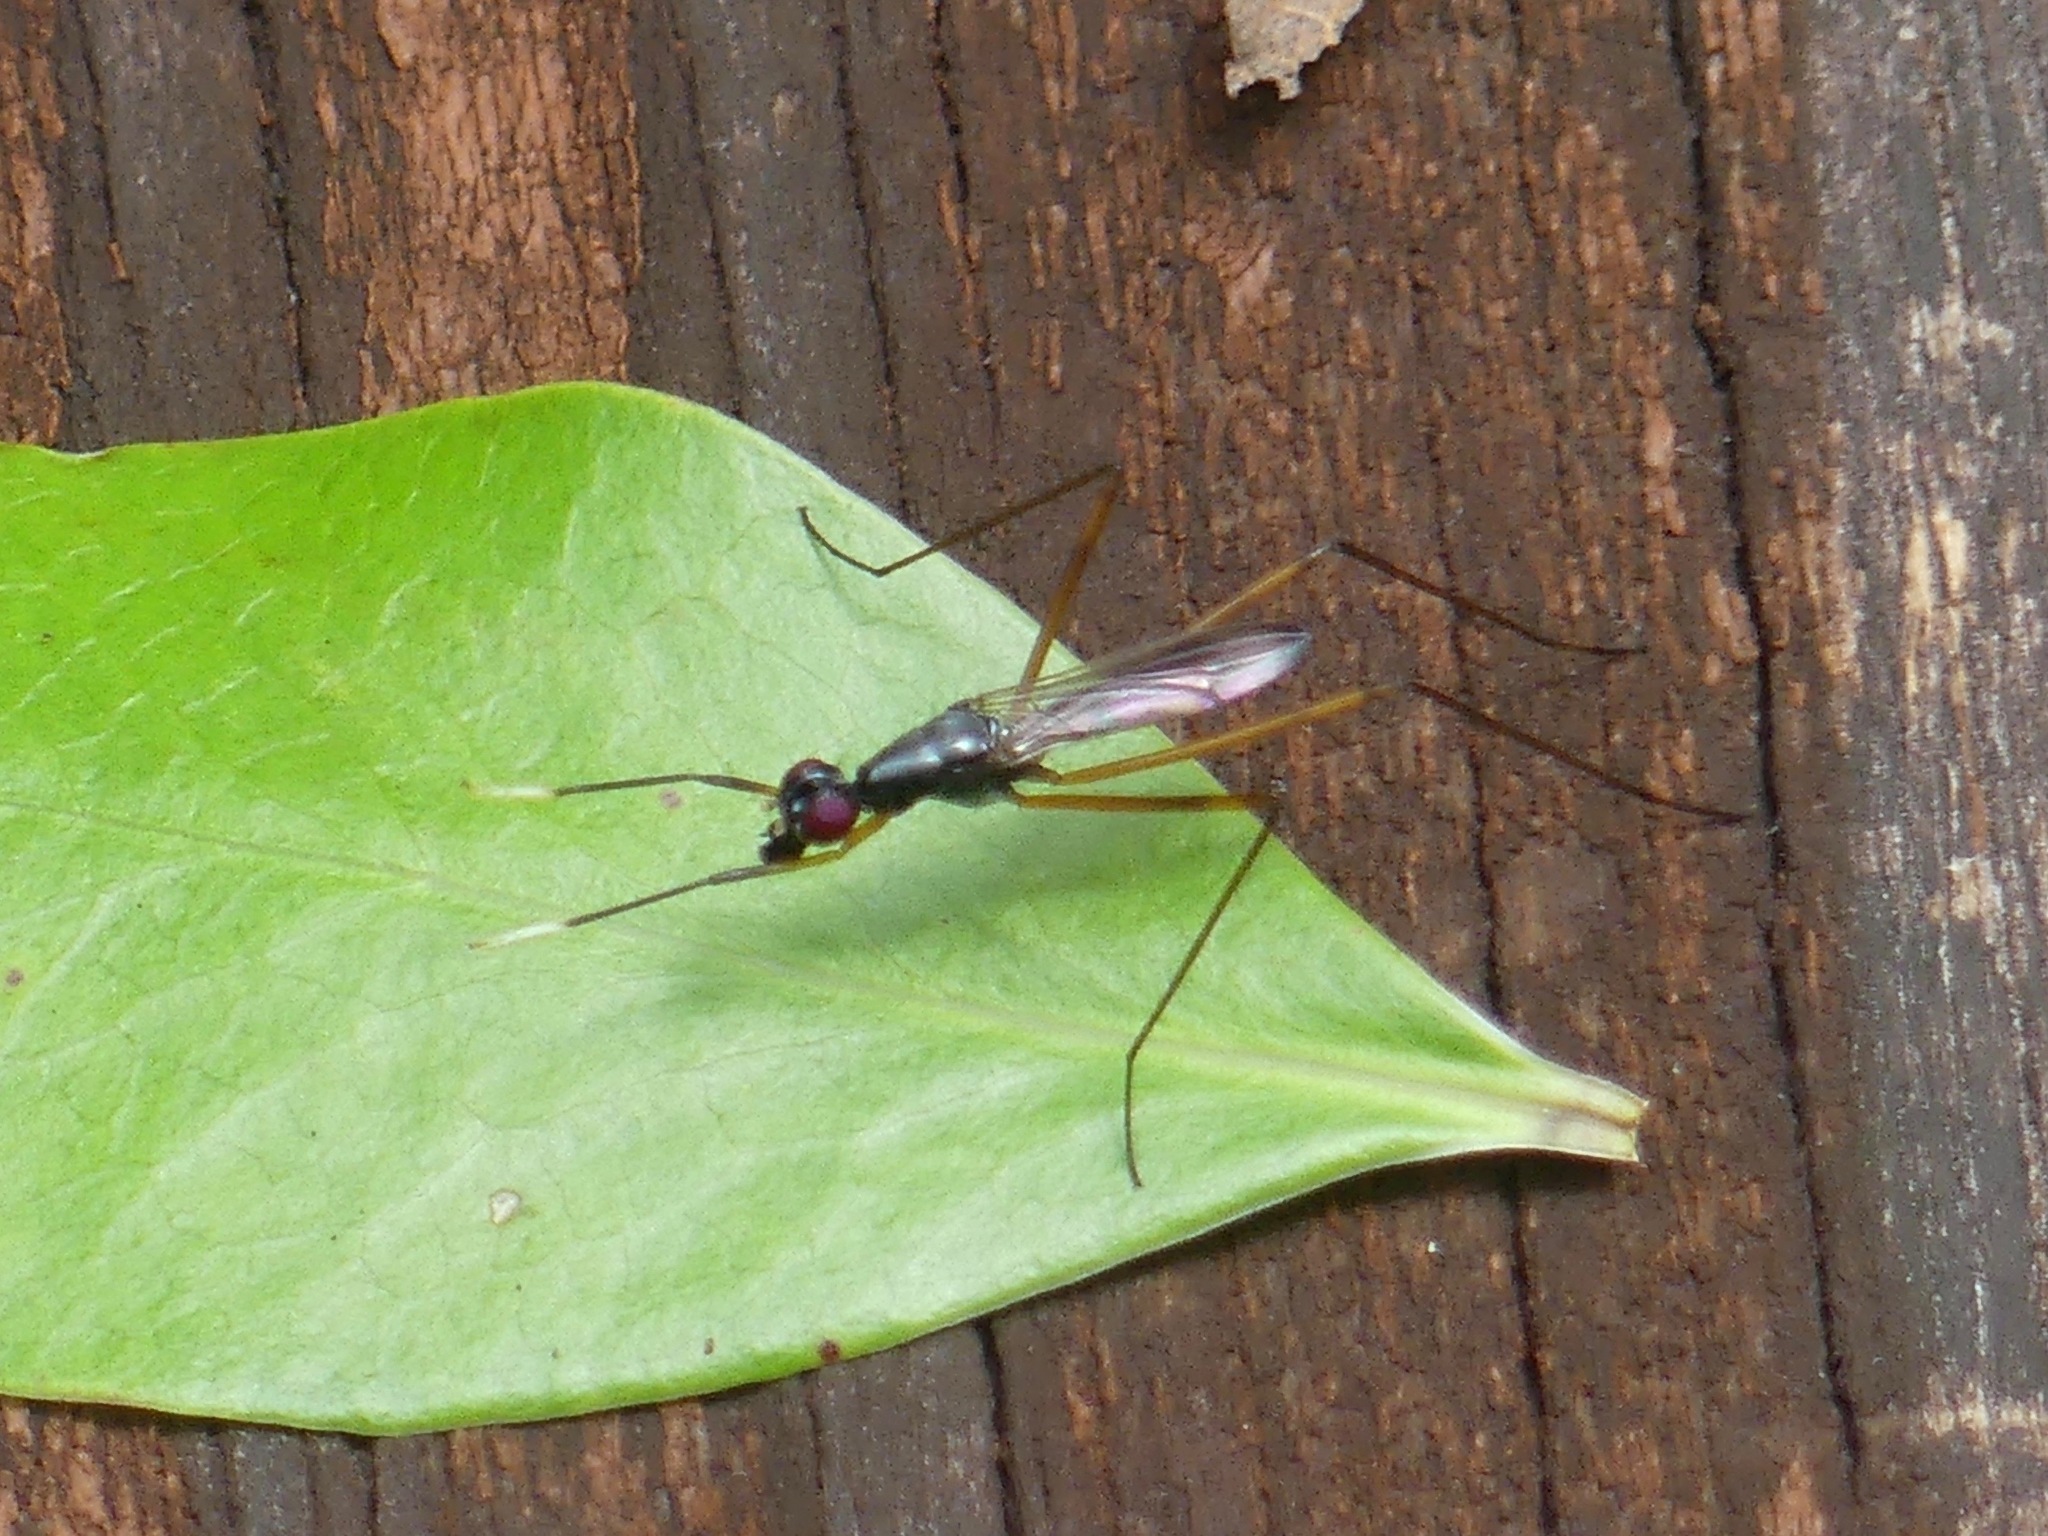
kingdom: Animalia
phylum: Arthropoda
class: Insecta
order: Diptera
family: Micropezidae
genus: Rainieria
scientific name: Rainieria antennaepes
